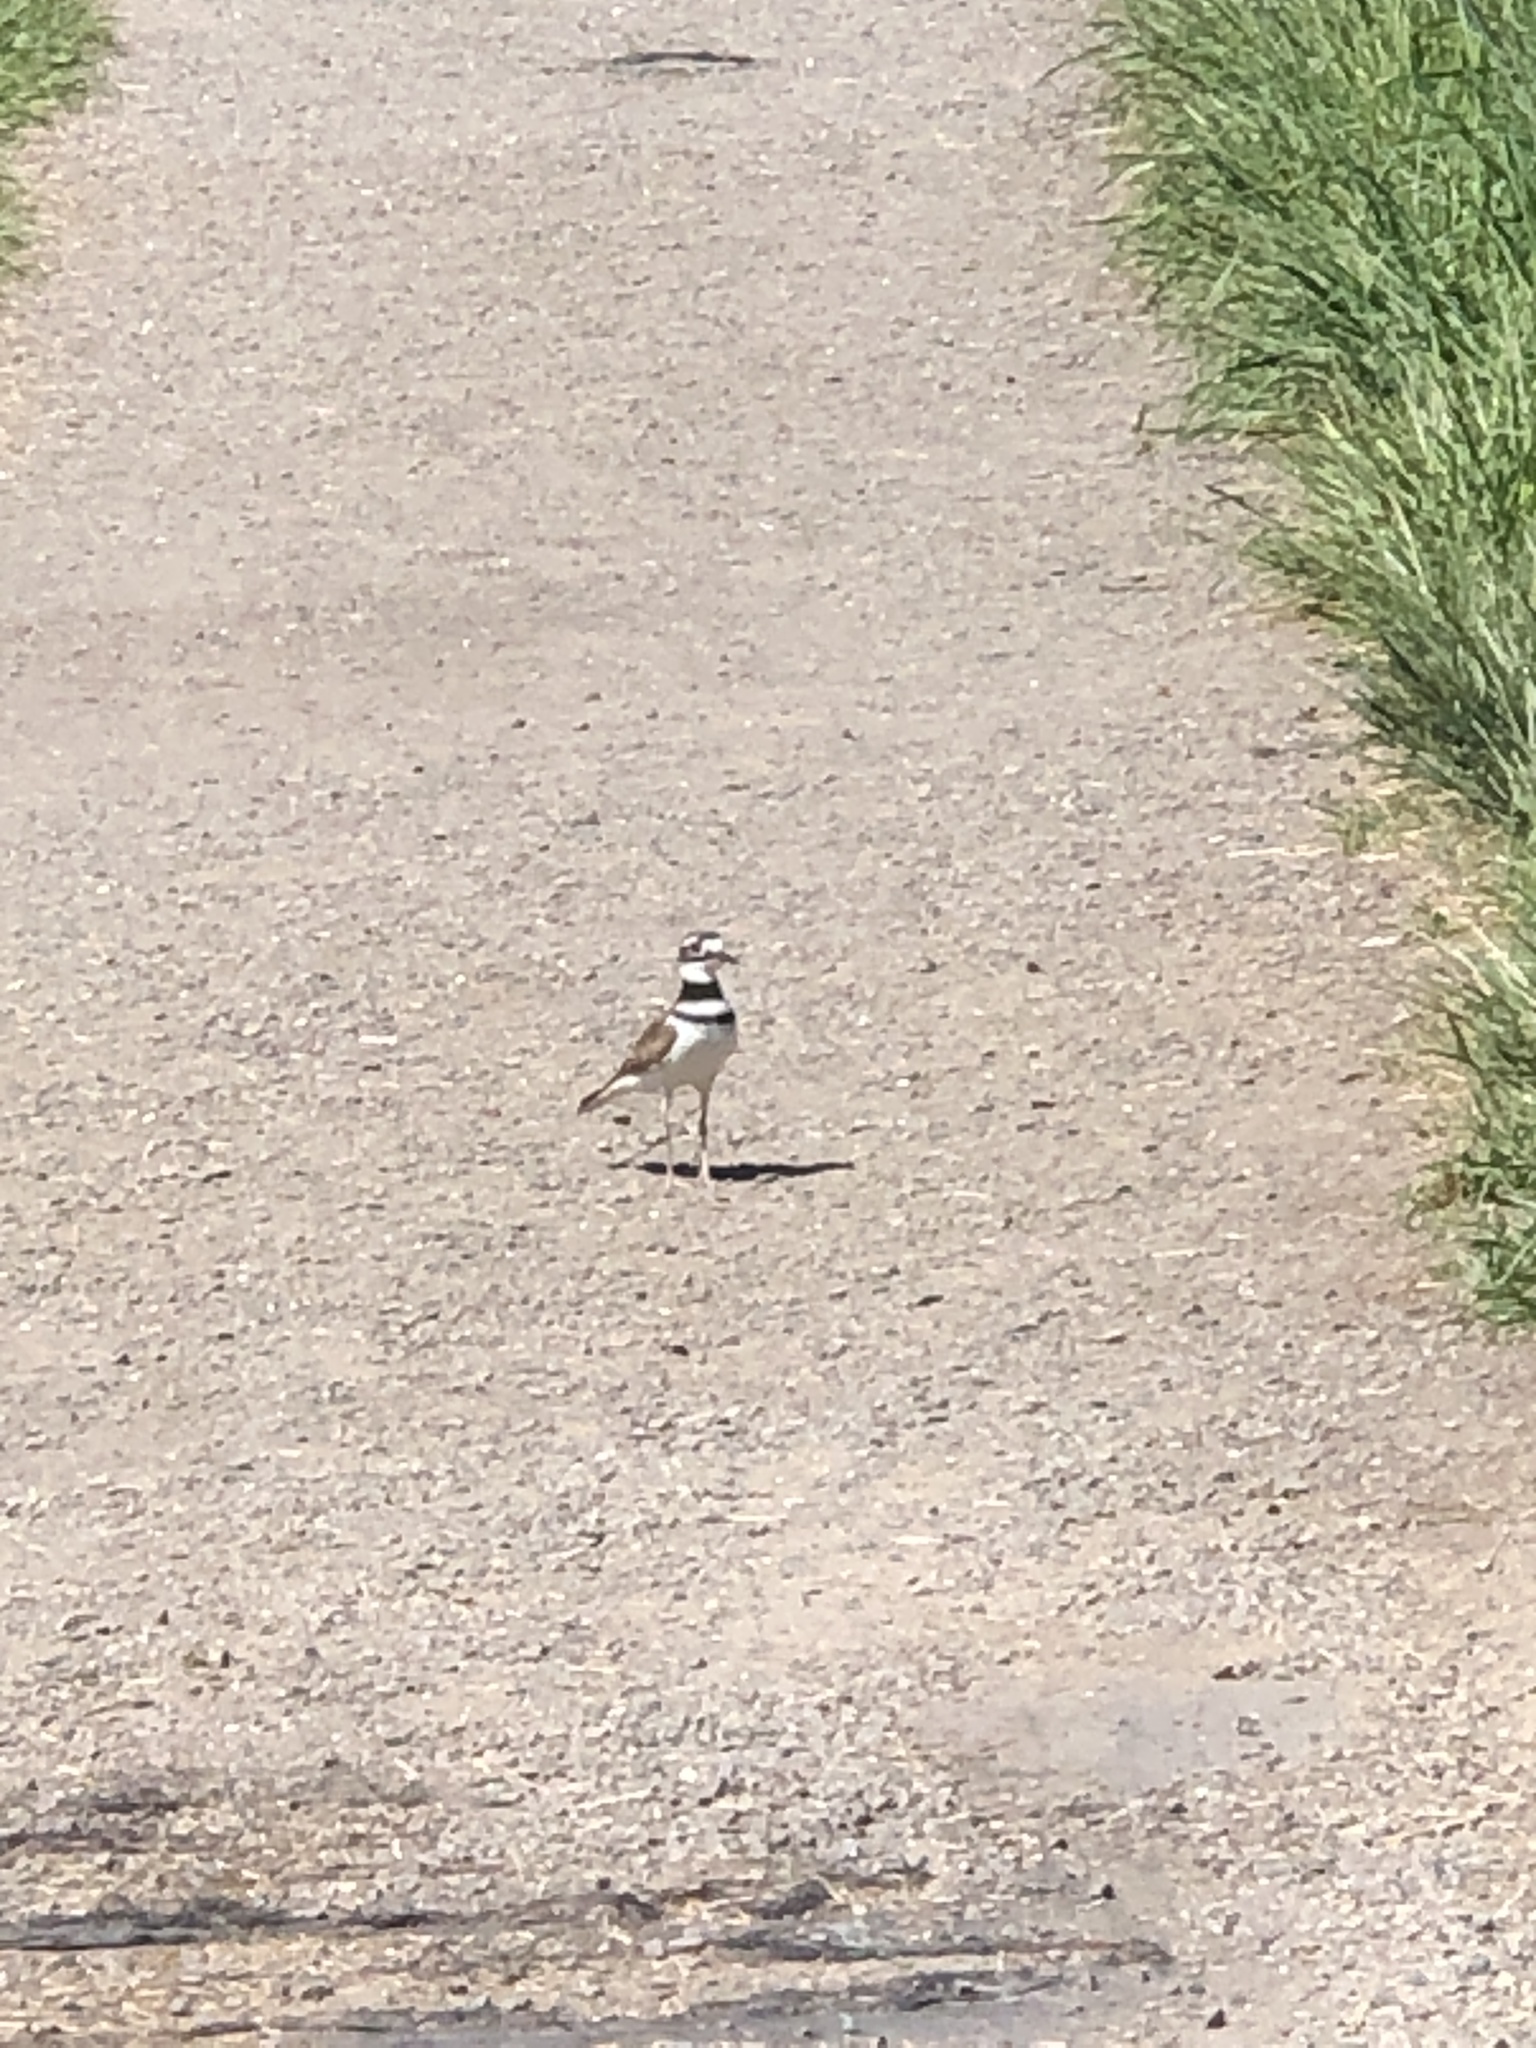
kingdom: Animalia
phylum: Chordata
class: Aves
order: Charadriiformes
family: Charadriidae
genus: Charadrius
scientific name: Charadrius vociferus
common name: Killdeer
